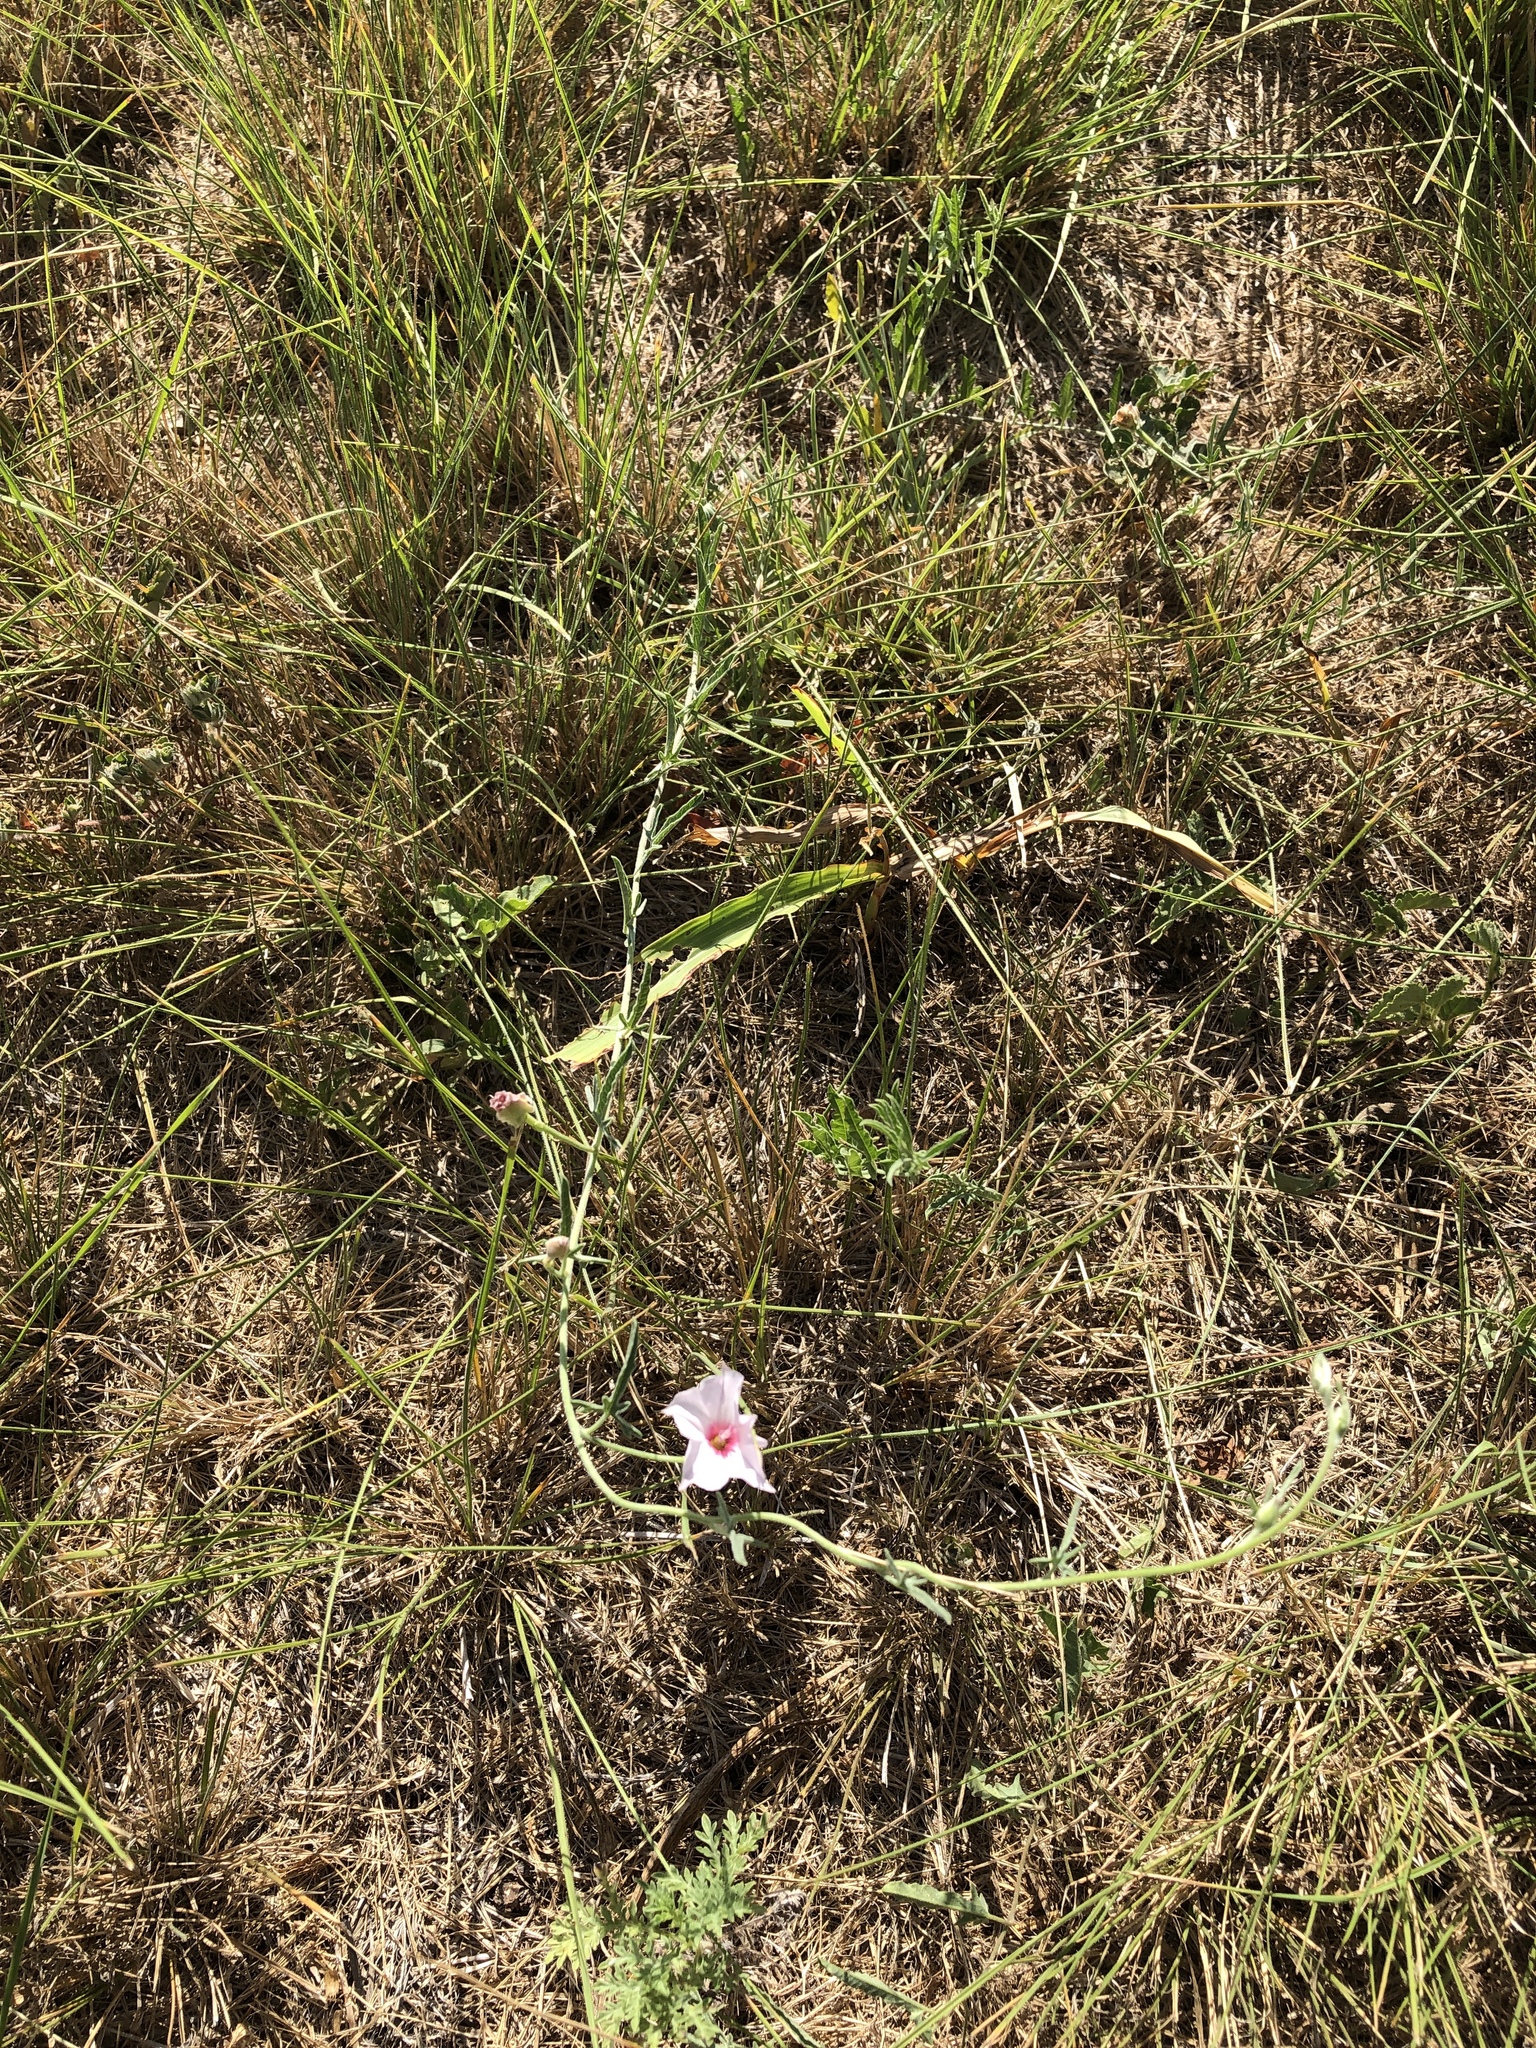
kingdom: Plantae
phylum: Tracheophyta
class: Magnoliopsida
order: Solanales
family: Convolvulaceae
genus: Convolvulus
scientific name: Convolvulus equitans
